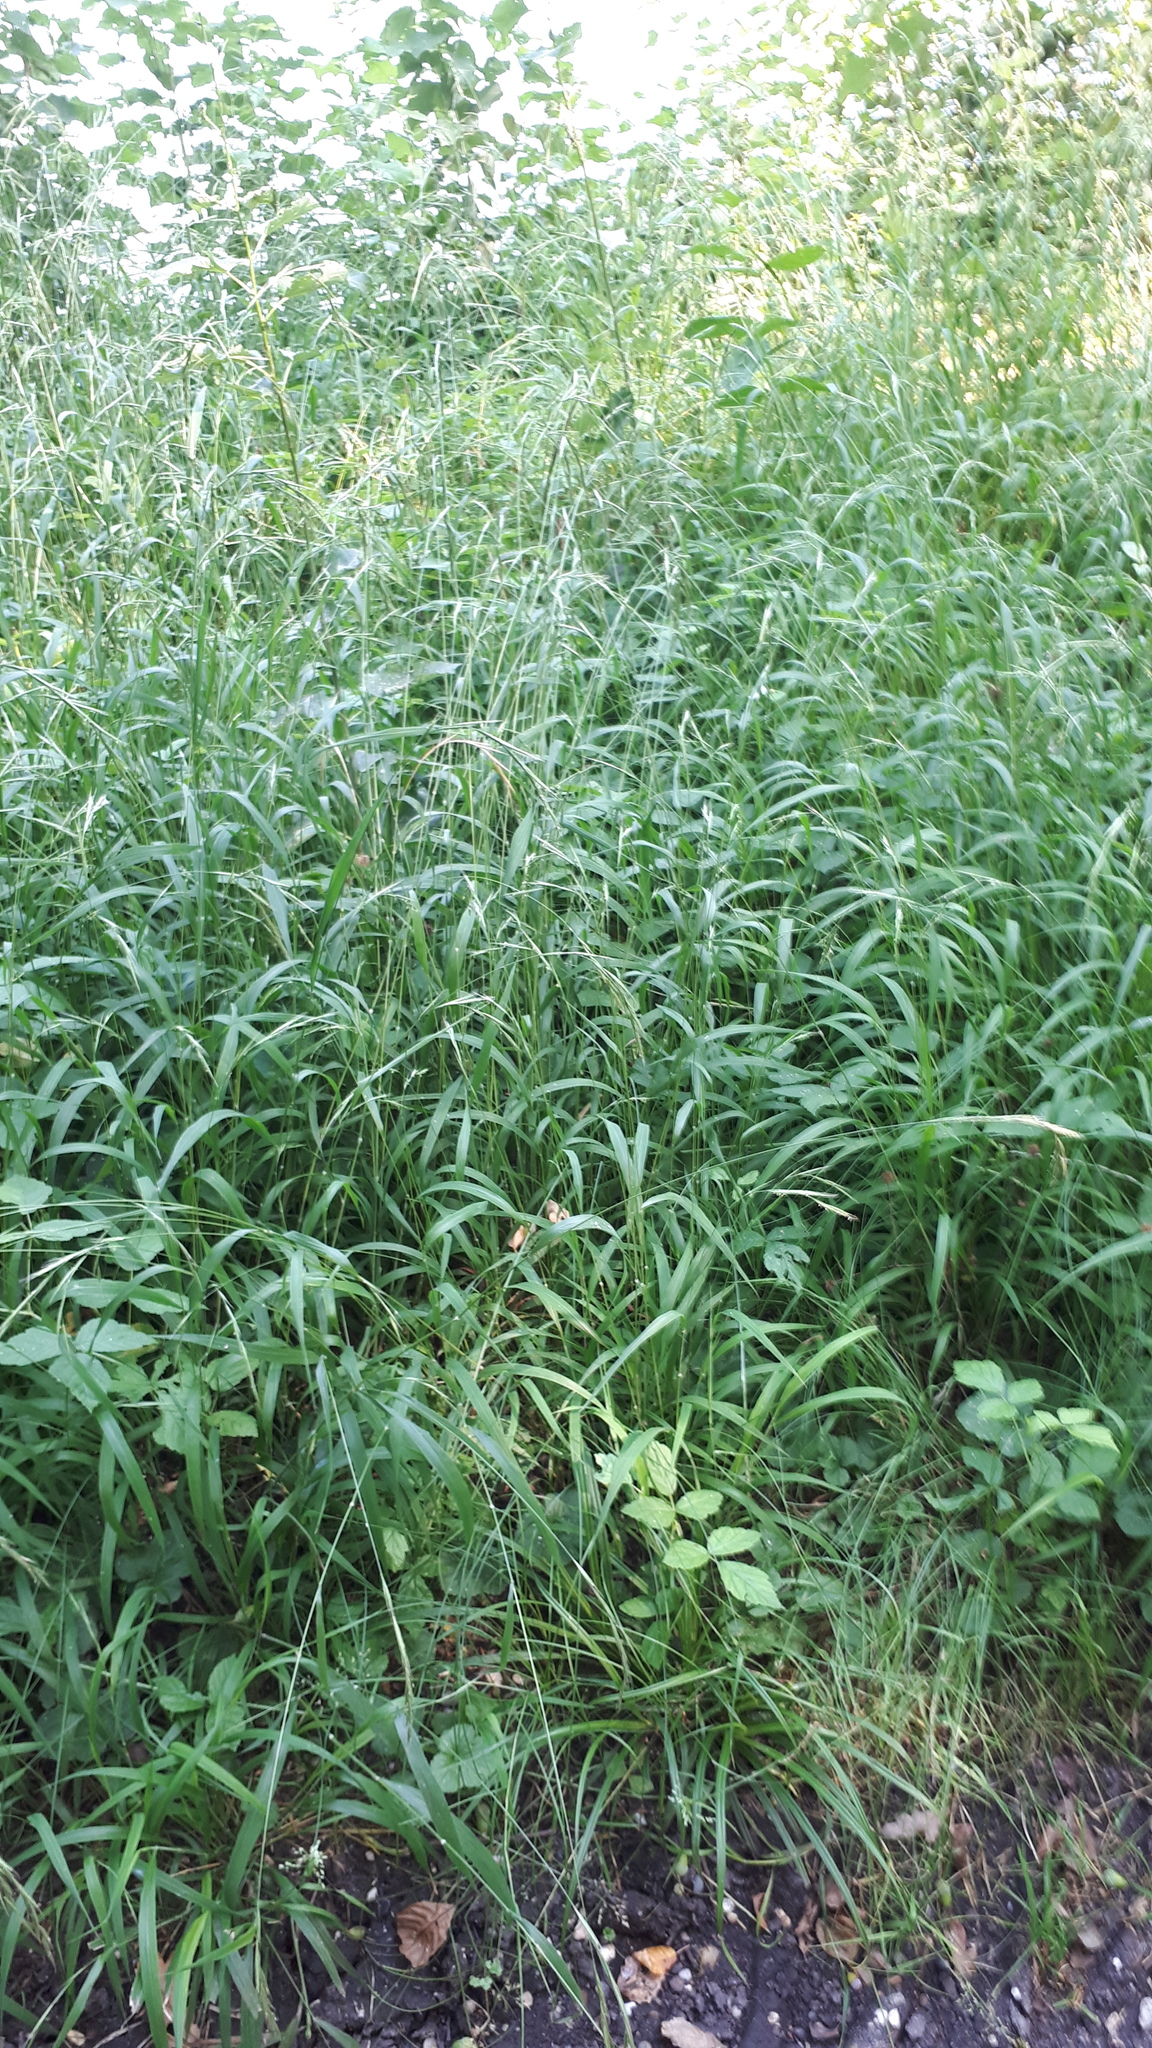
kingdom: Plantae
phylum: Tracheophyta
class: Liliopsida
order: Poales
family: Poaceae
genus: Brachypodium
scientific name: Brachypodium sylvaticum
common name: False-brome
